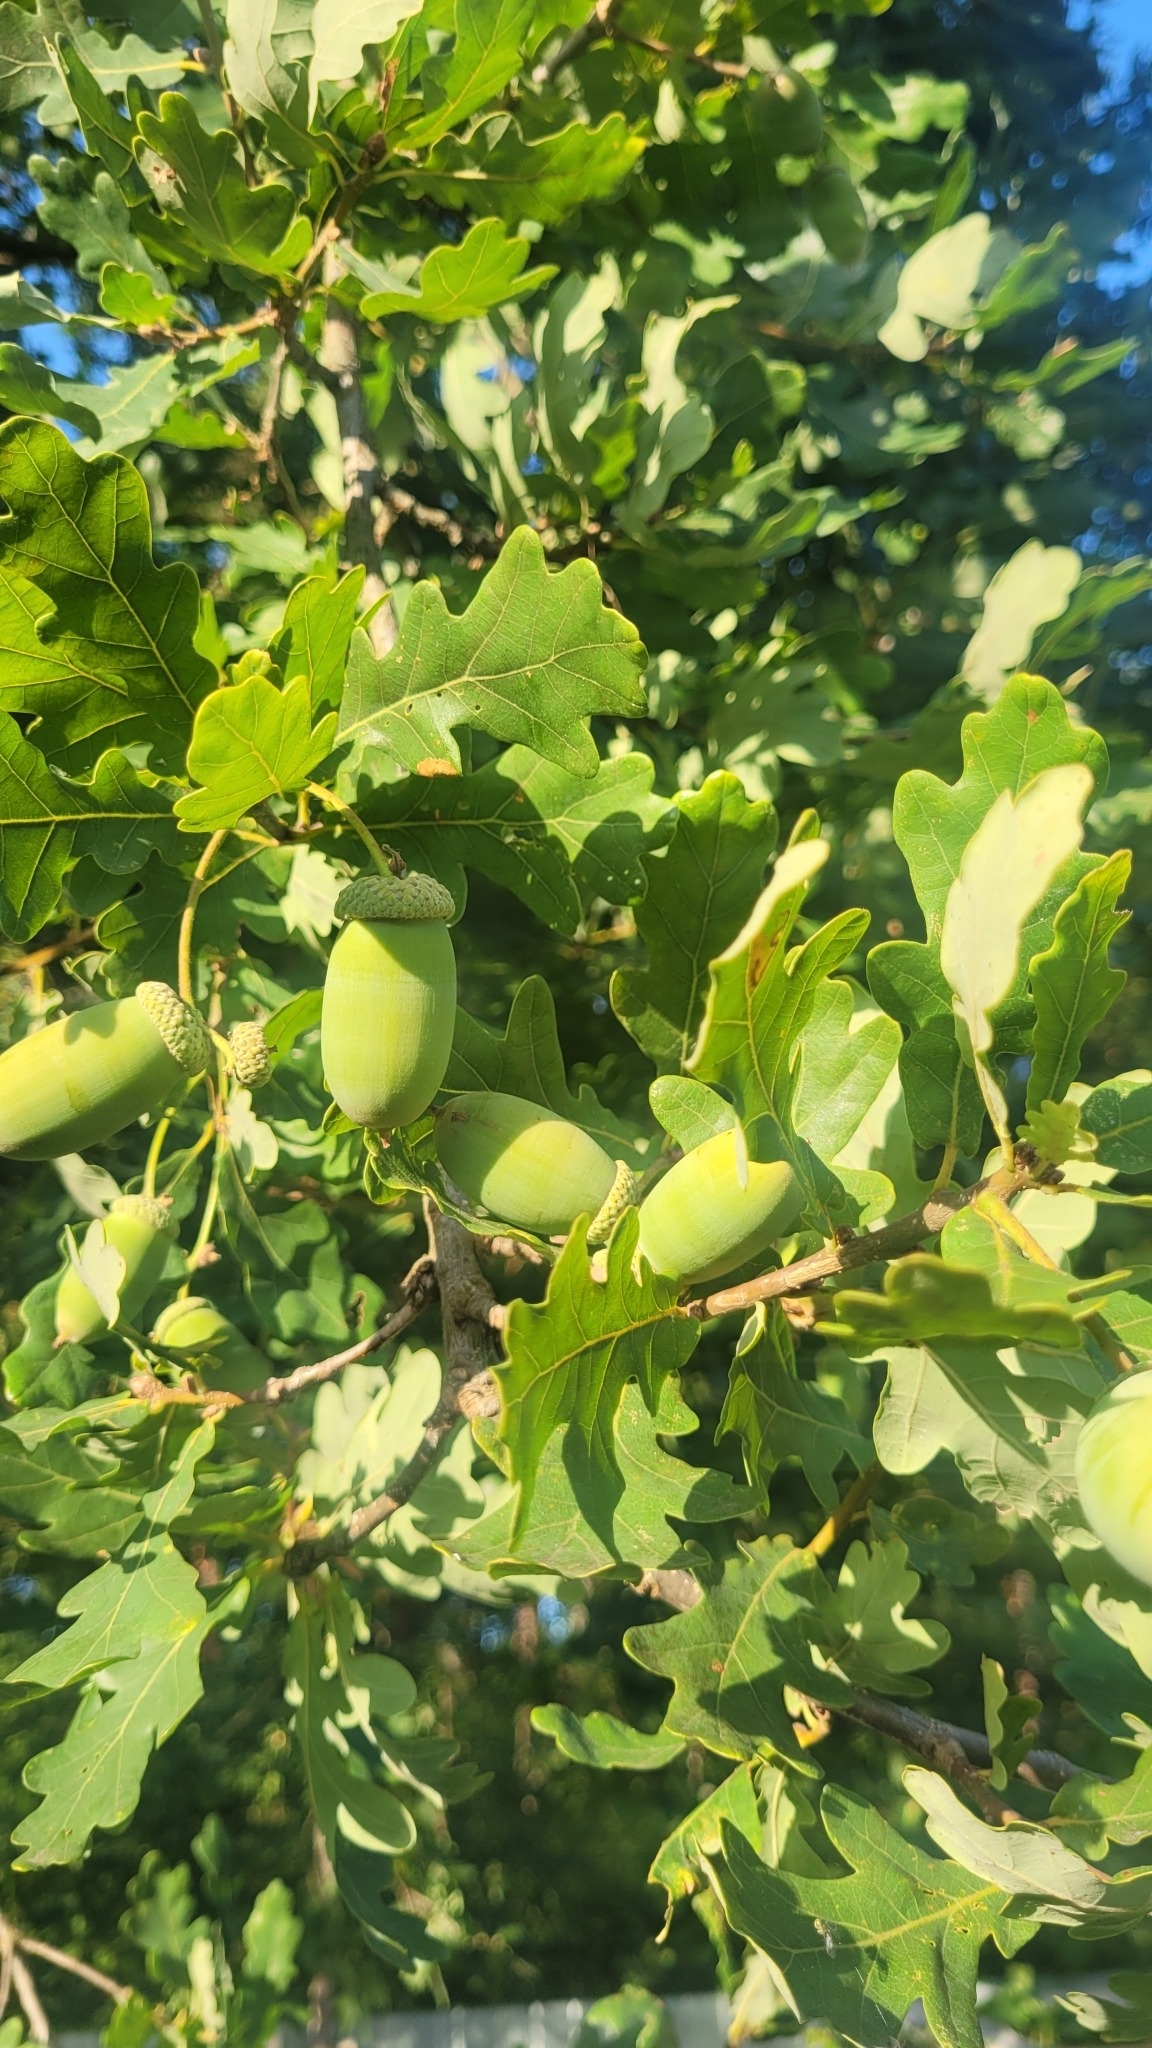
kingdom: Plantae
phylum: Tracheophyta
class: Magnoliopsida
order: Fagales
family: Fagaceae
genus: Quercus
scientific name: Quercus robur
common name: Pedunculate oak
